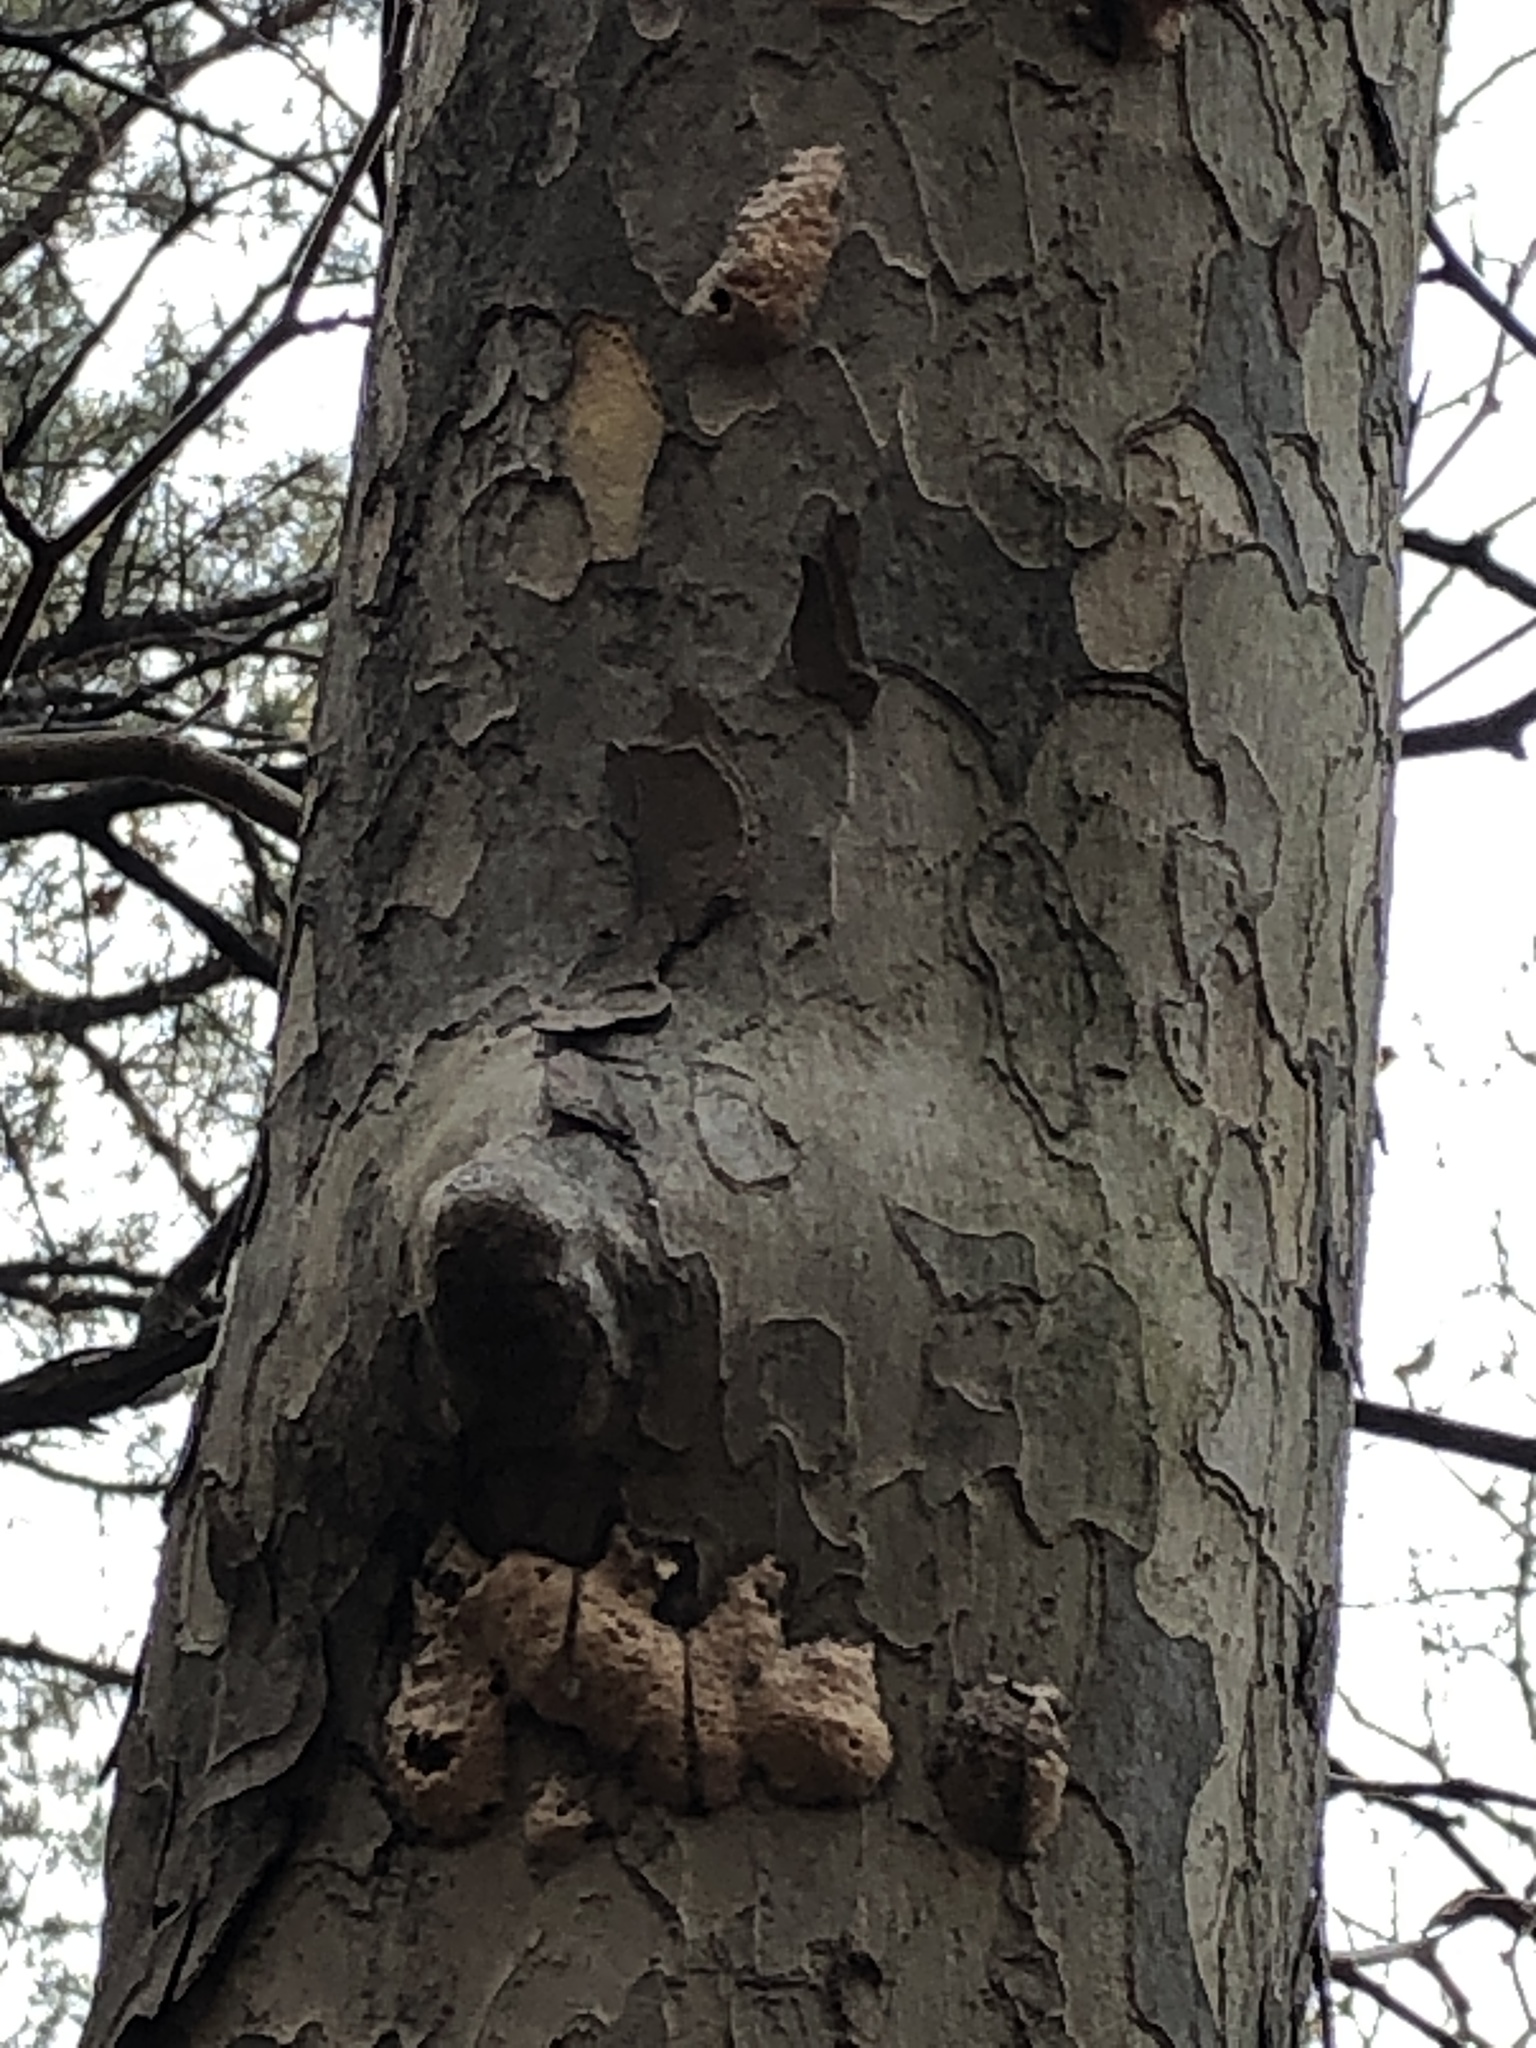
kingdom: Animalia
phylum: Arthropoda
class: Insecta
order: Lepidoptera
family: Erebidae
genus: Lymantria
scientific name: Lymantria dispar
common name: Gypsy moth
